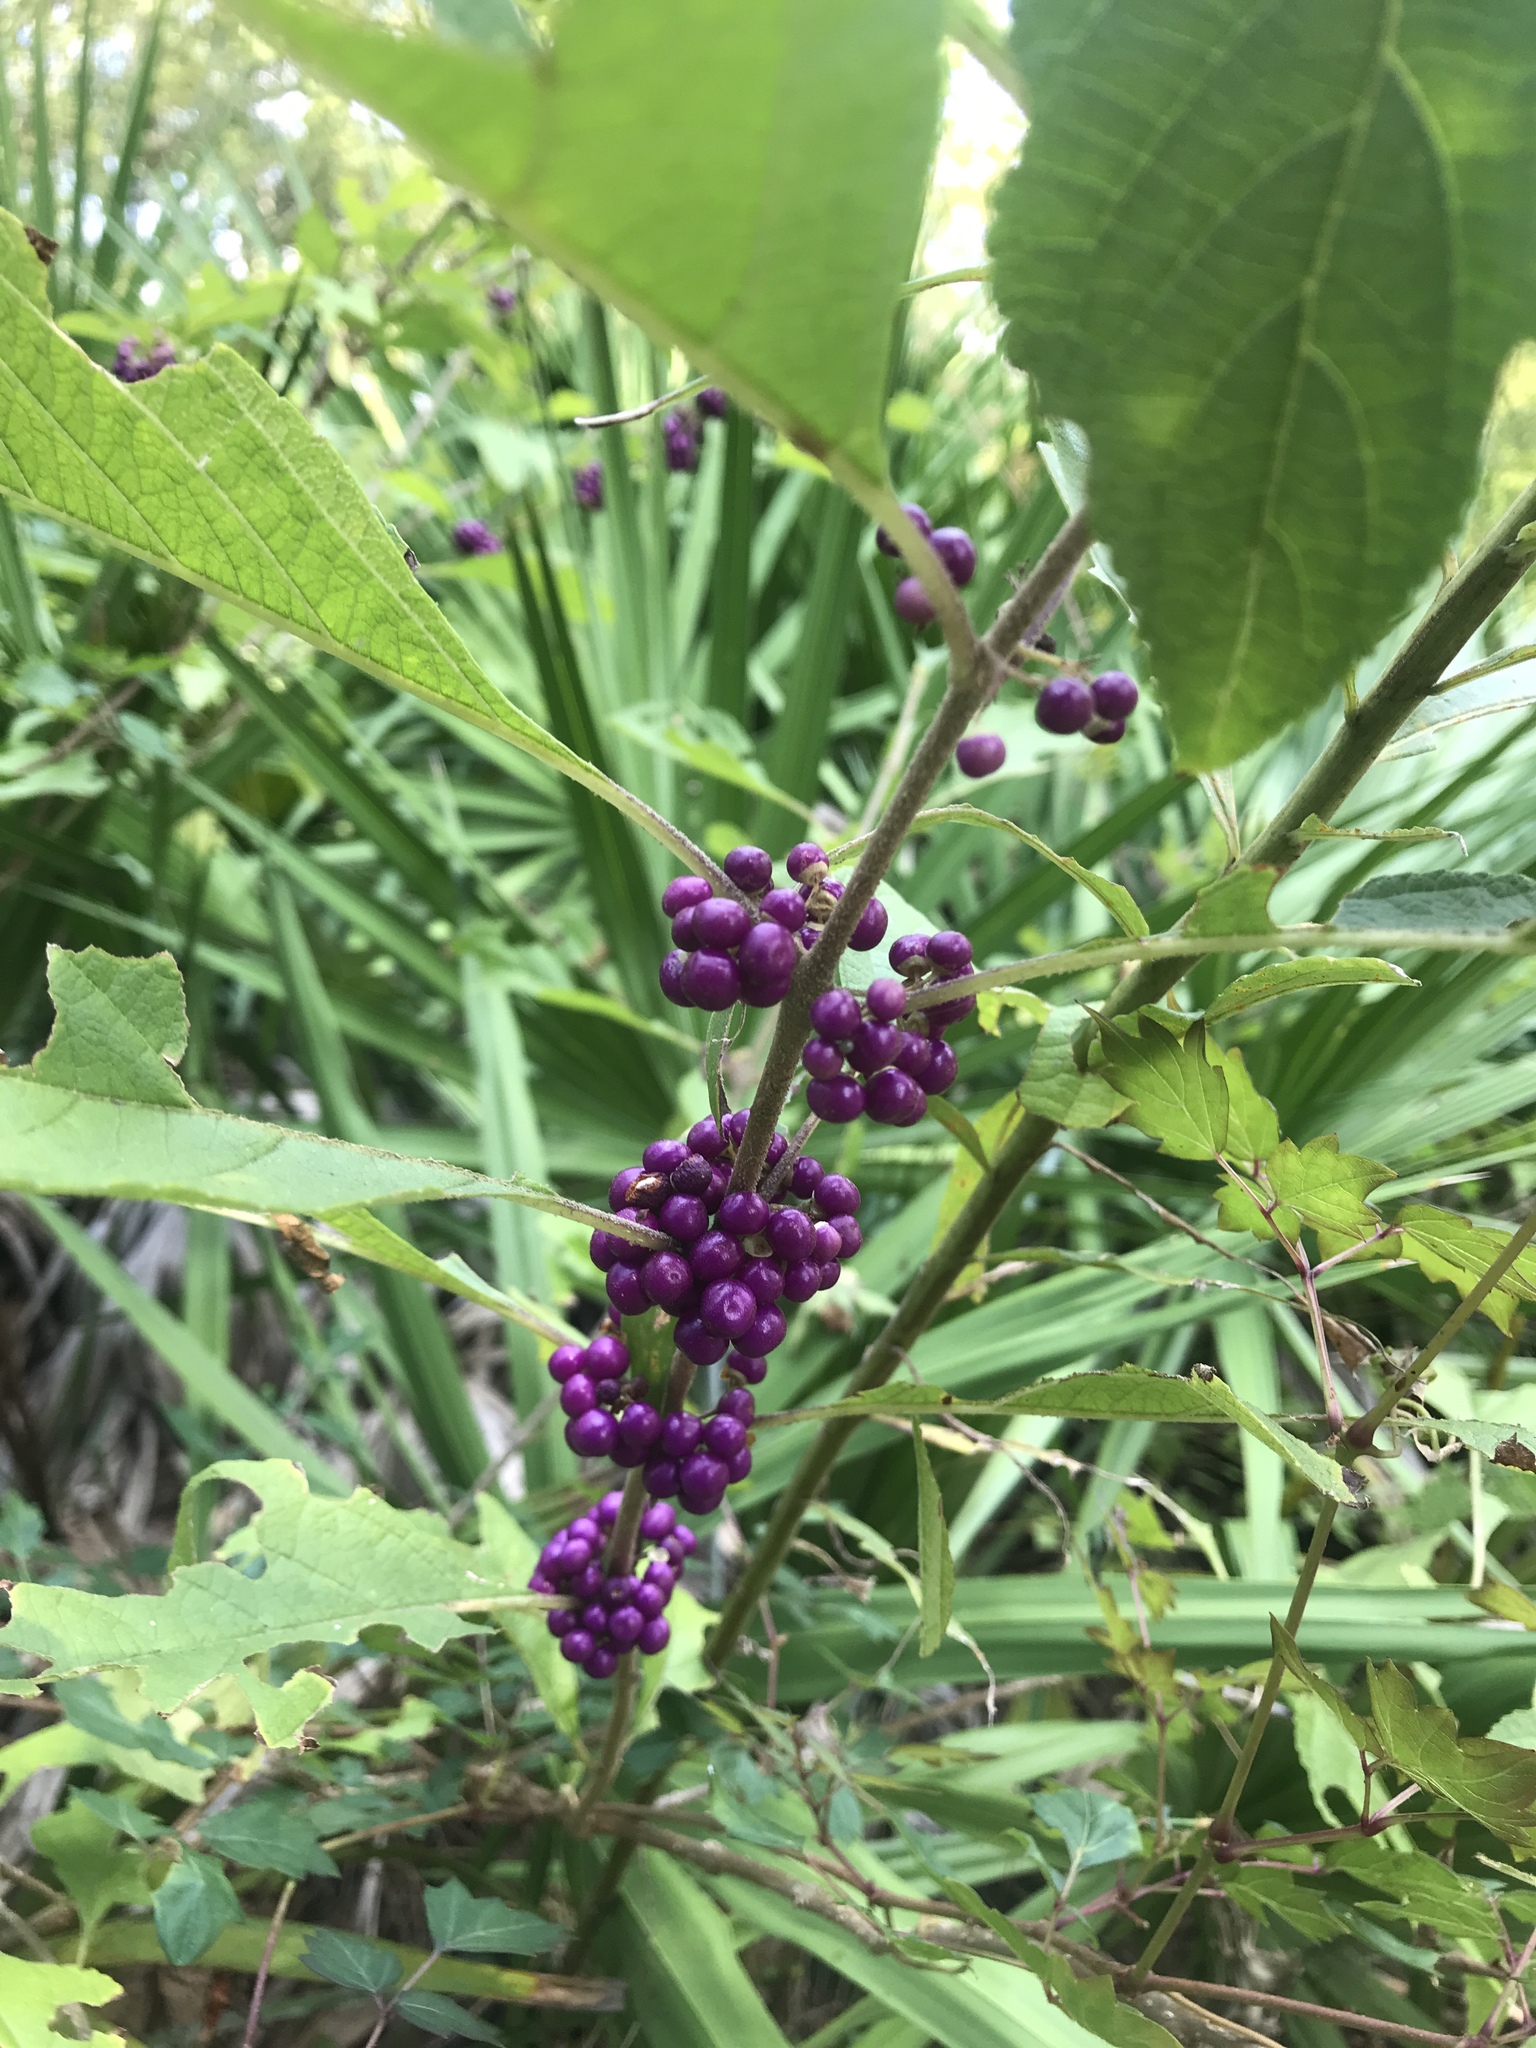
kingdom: Plantae
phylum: Tracheophyta
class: Magnoliopsida
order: Lamiales
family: Lamiaceae
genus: Callicarpa
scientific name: Callicarpa americana
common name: American beautyberry
